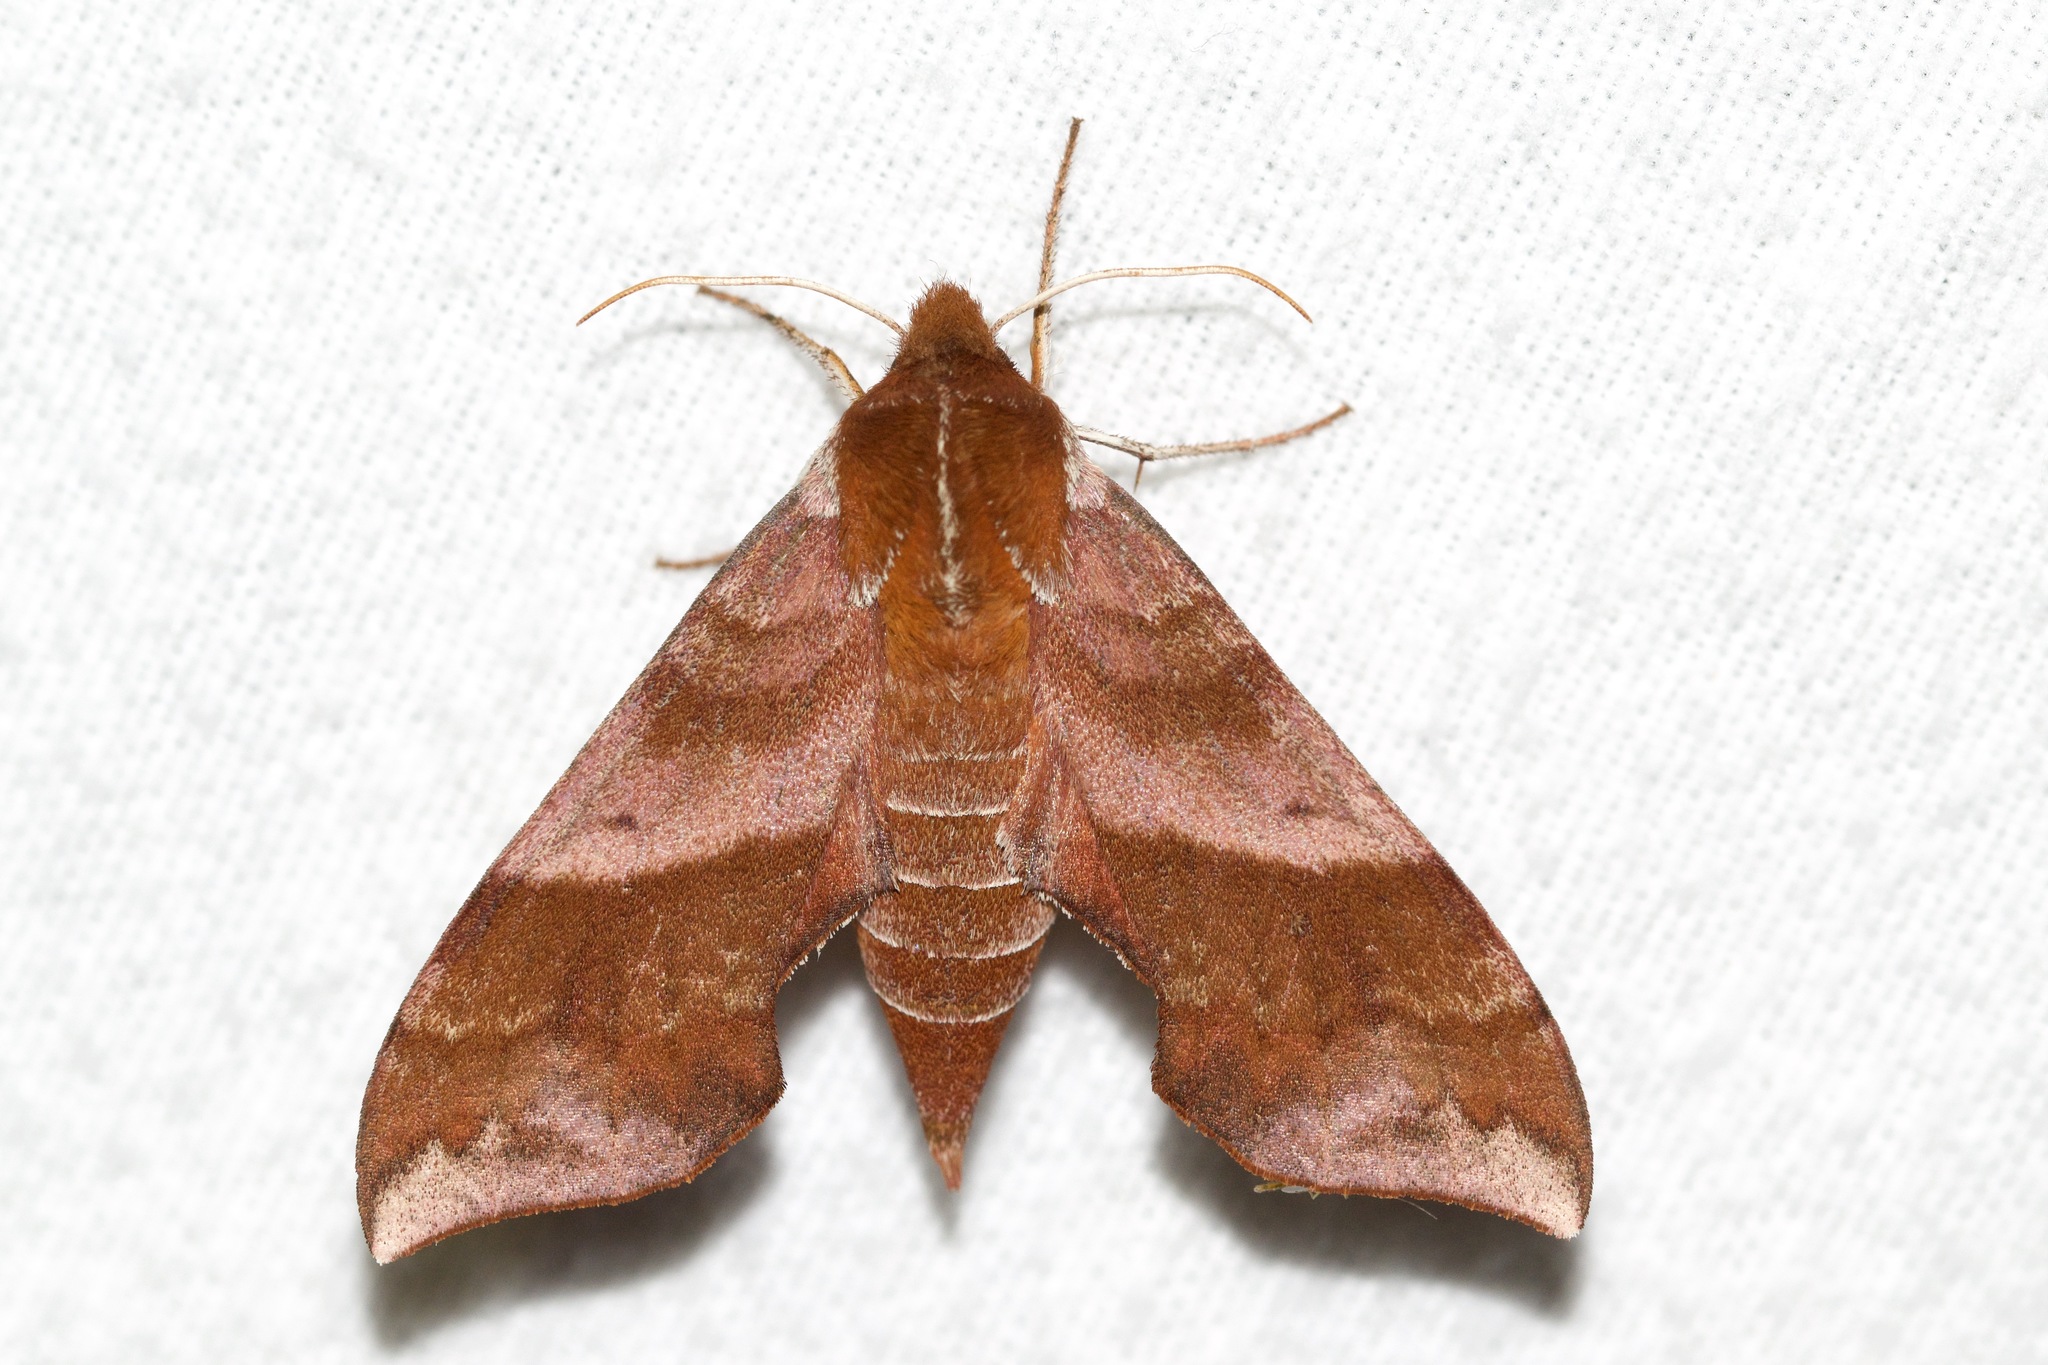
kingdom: Animalia
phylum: Arthropoda
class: Insecta
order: Lepidoptera
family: Sphingidae
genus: Darapsa
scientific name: Darapsa choerilus
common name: Azalea sphinx
